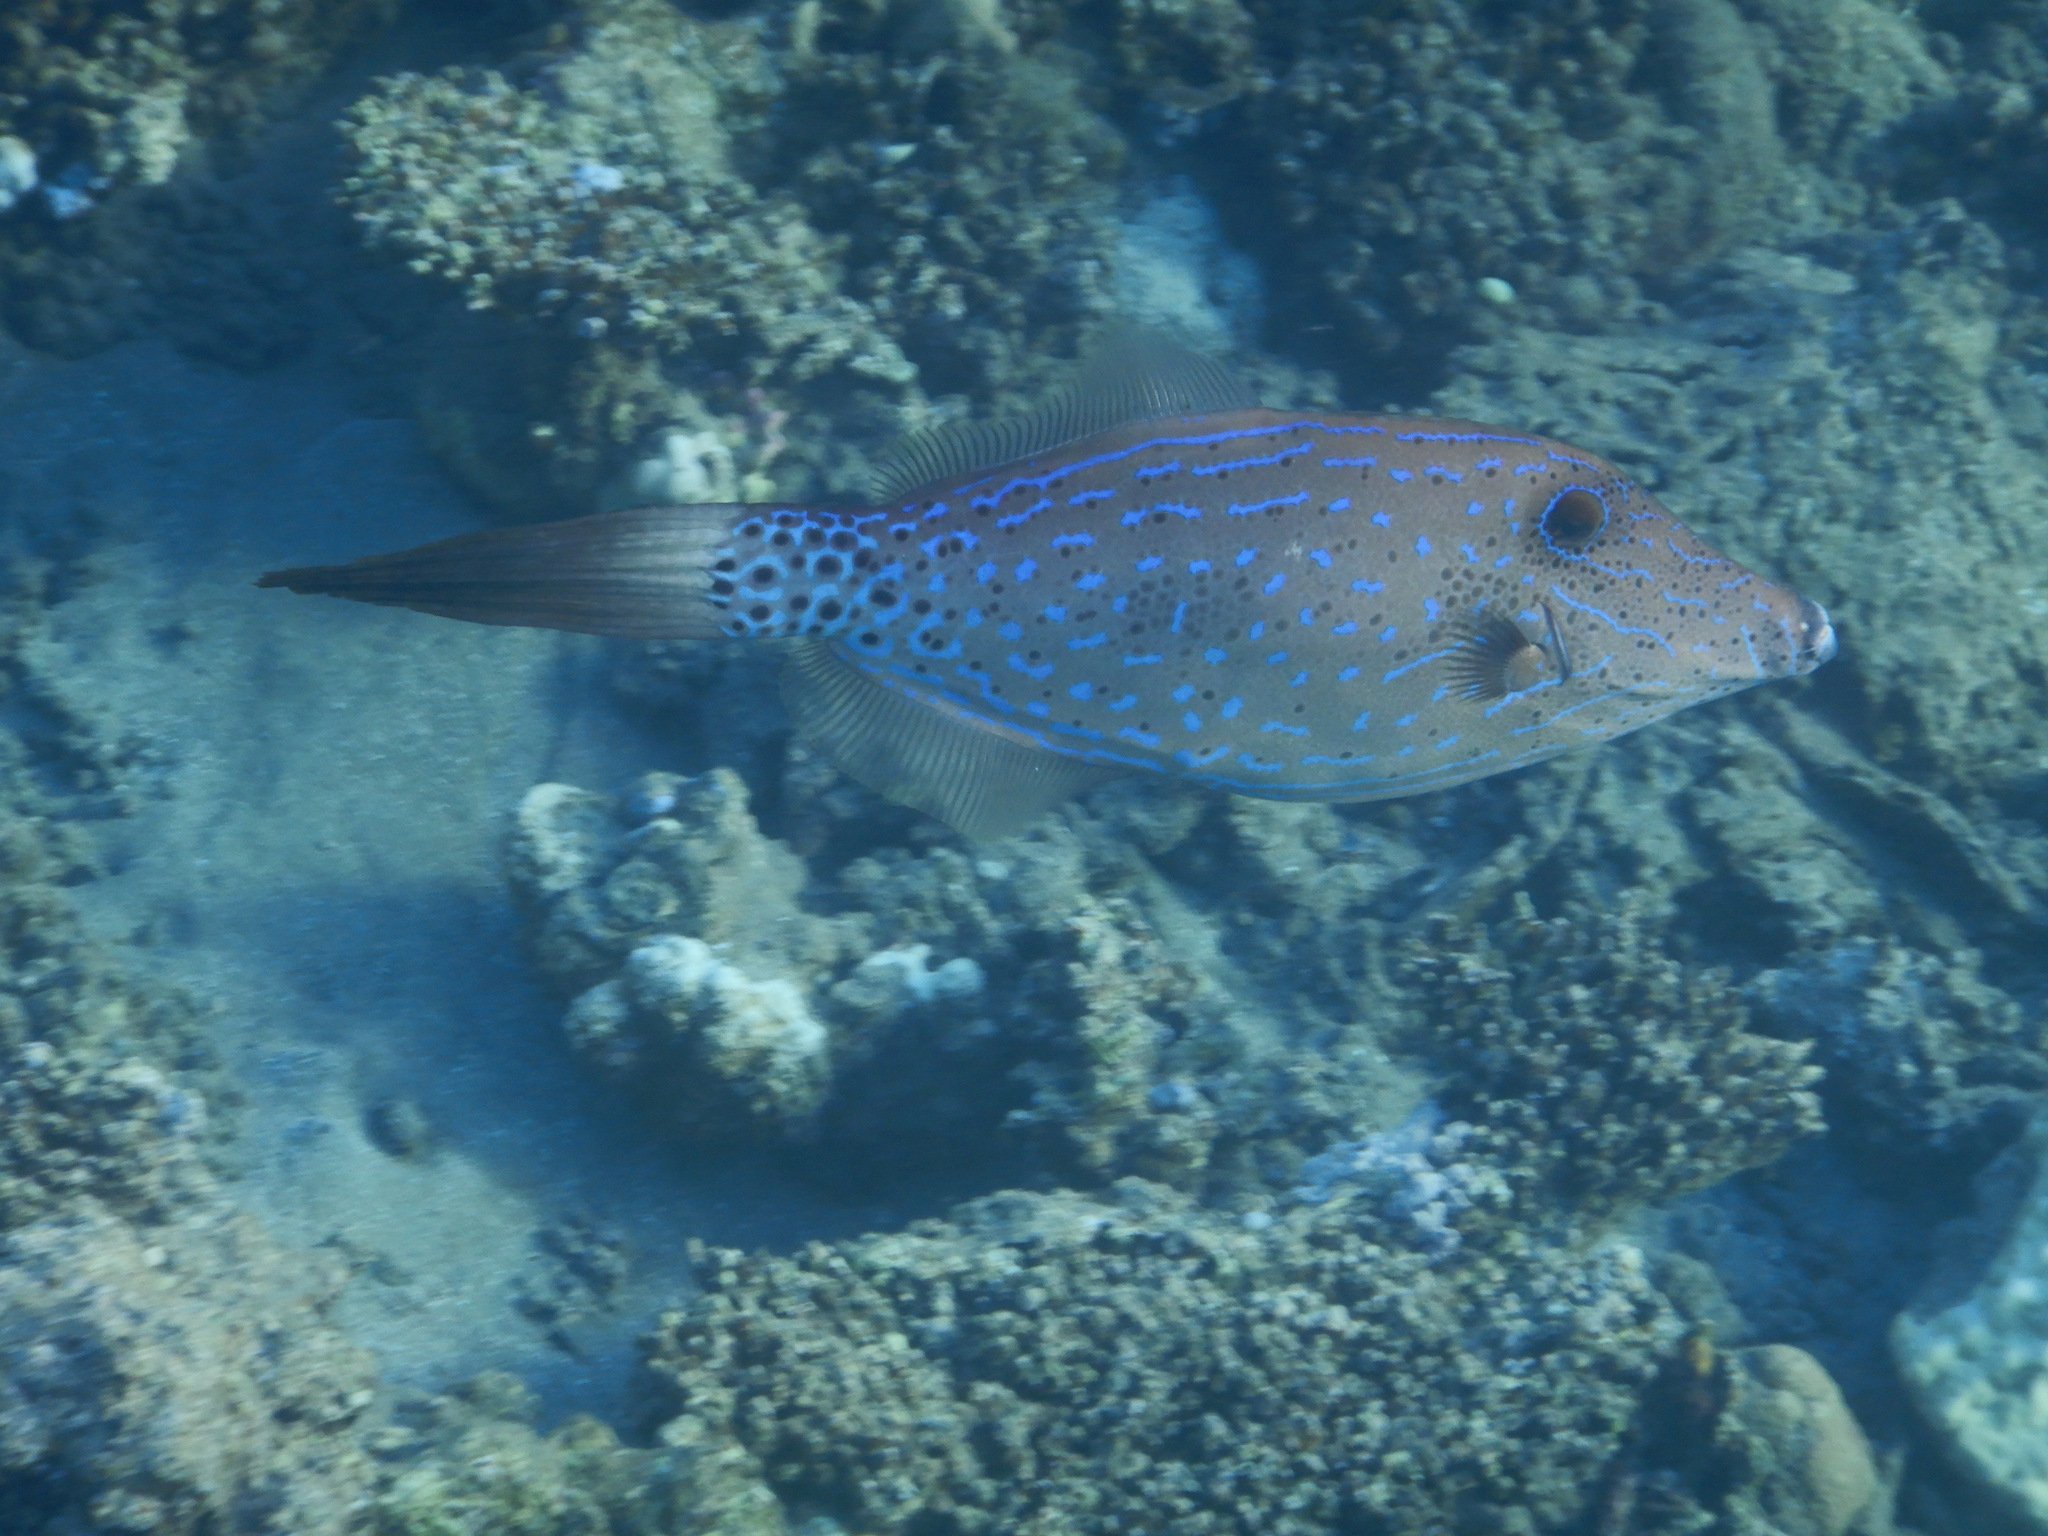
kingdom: Animalia
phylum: Chordata
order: Tetraodontiformes
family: Monacanthidae
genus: Aluterus
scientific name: Aluterus scriptus
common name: Scribbled leatherjacket filefish
